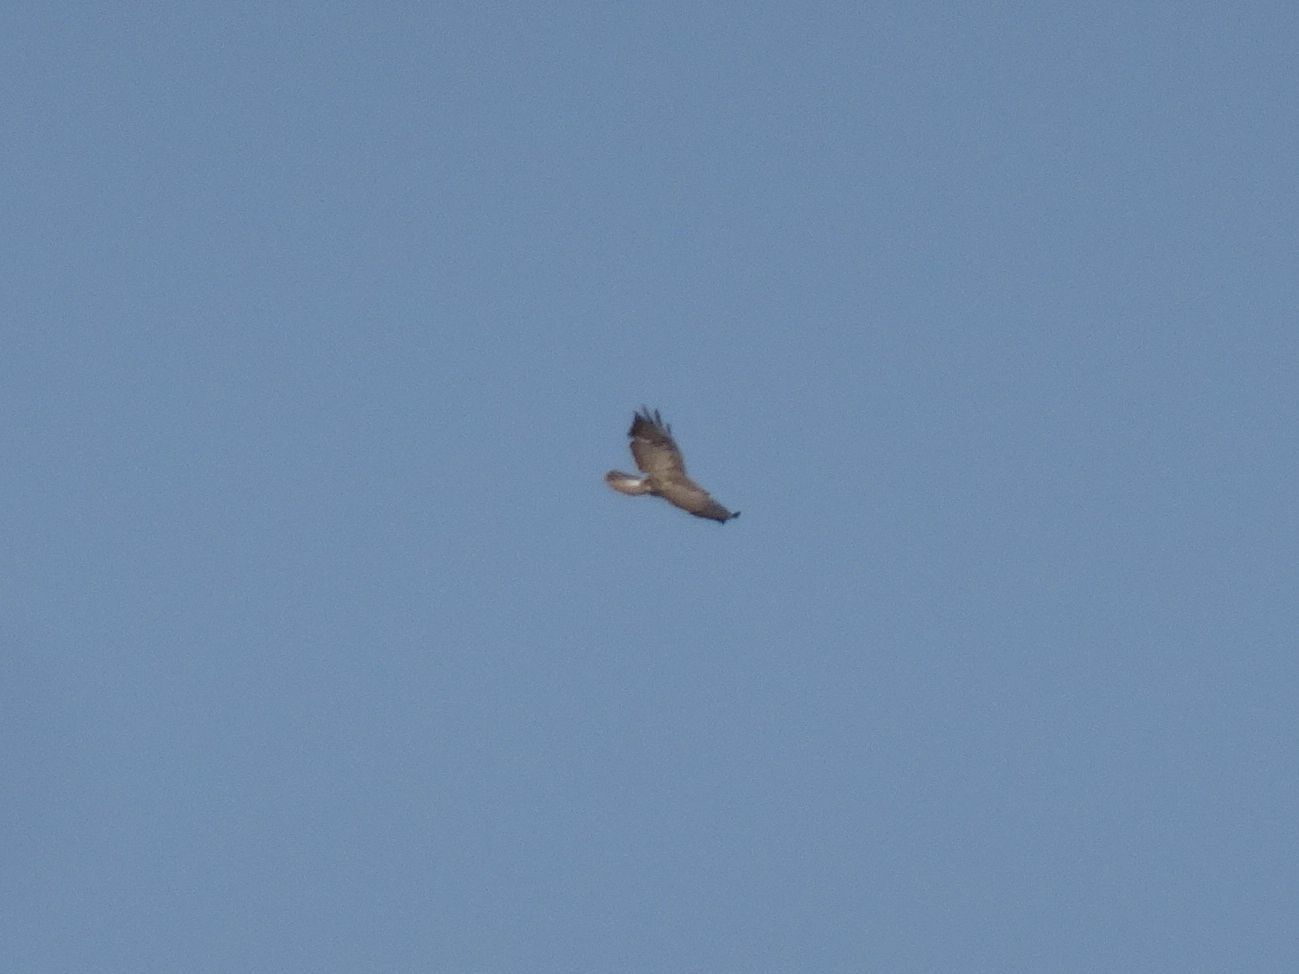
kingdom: Animalia
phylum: Chordata
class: Aves
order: Accipitriformes
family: Accipitridae
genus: Buteo
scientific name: Buteo buteo
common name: Common buzzard
